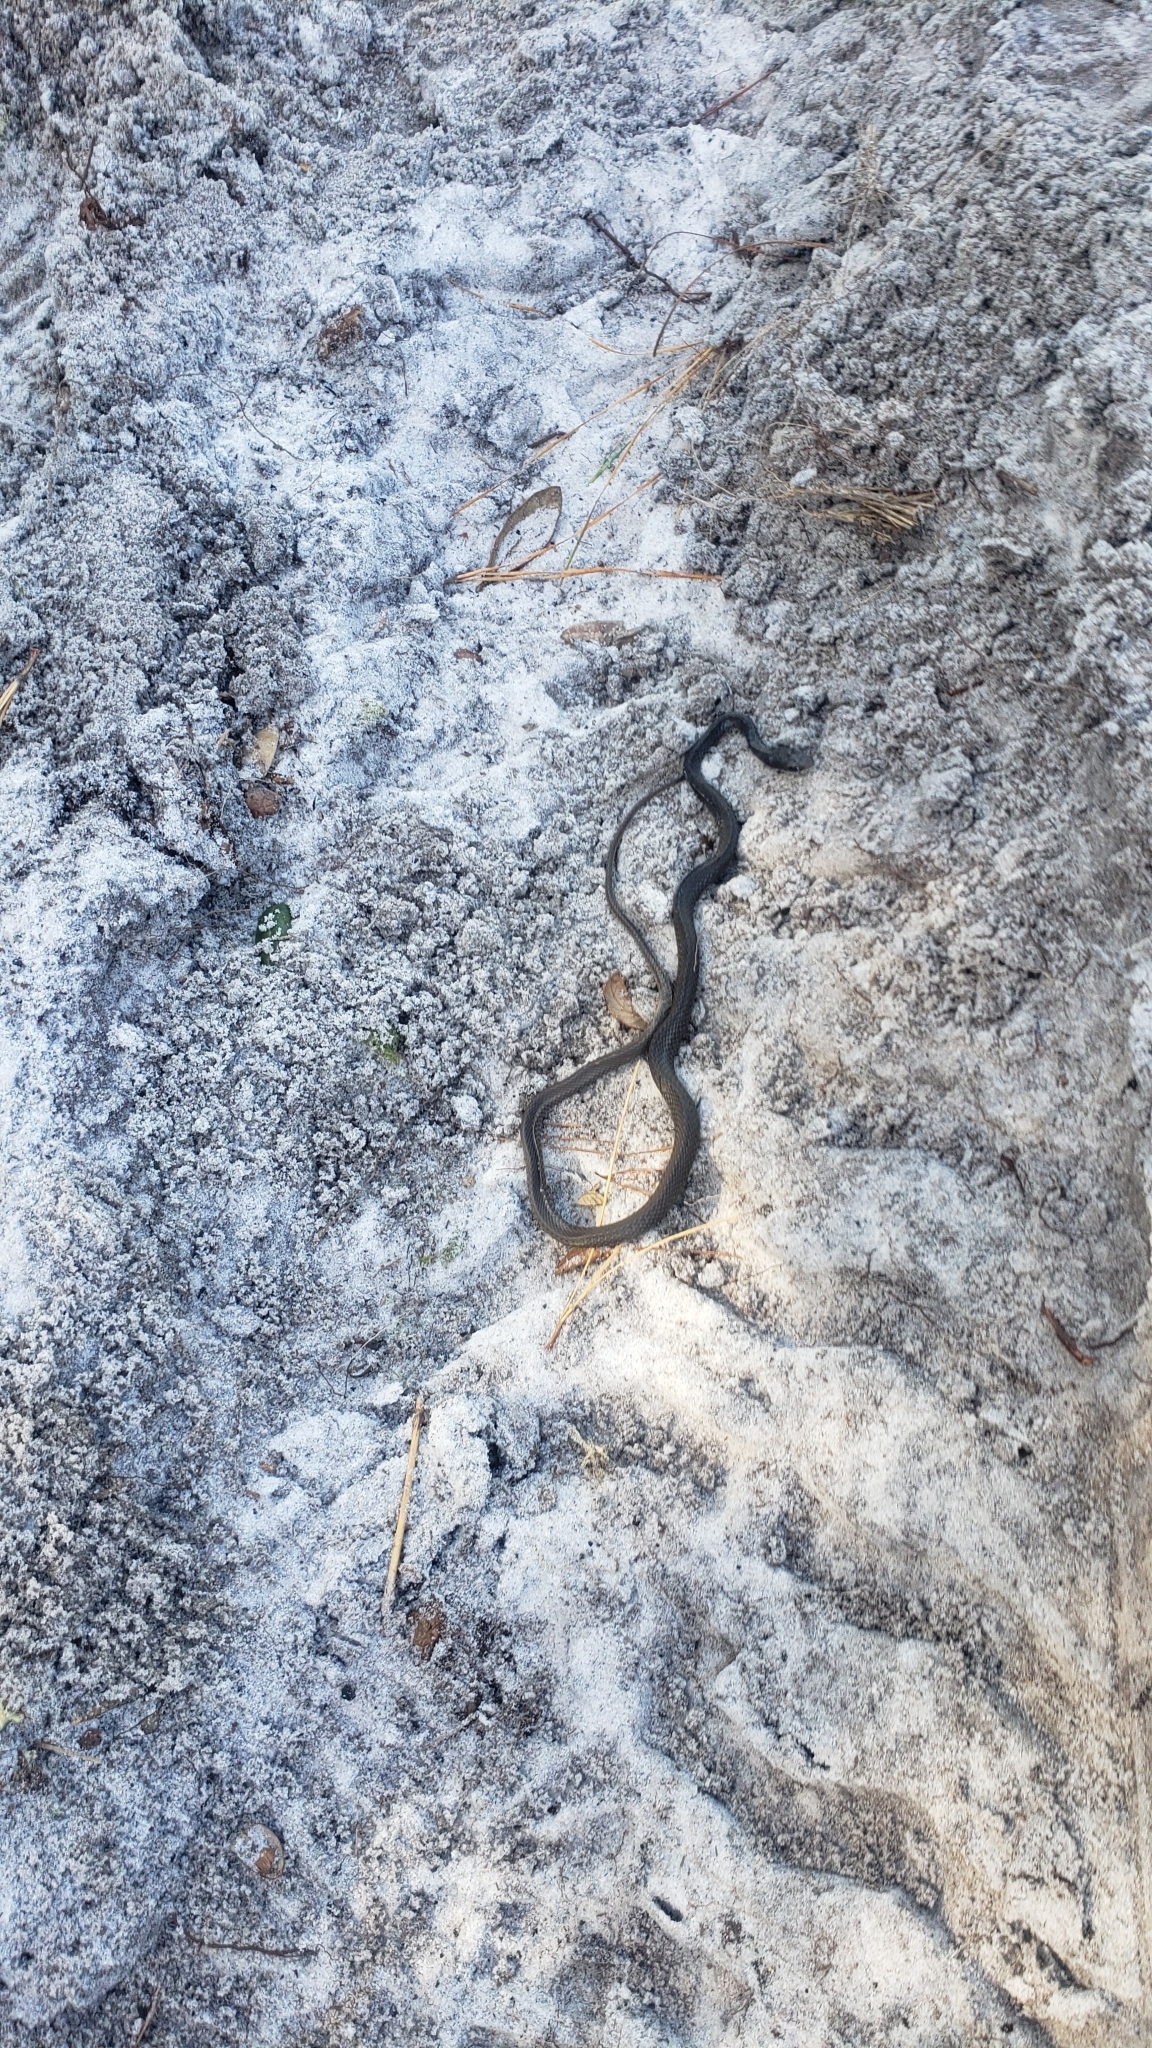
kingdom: Animalia
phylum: Chordata
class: Squamata
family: Colubridae
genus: Coluber
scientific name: Coluber constrictor
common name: Eastern racer
